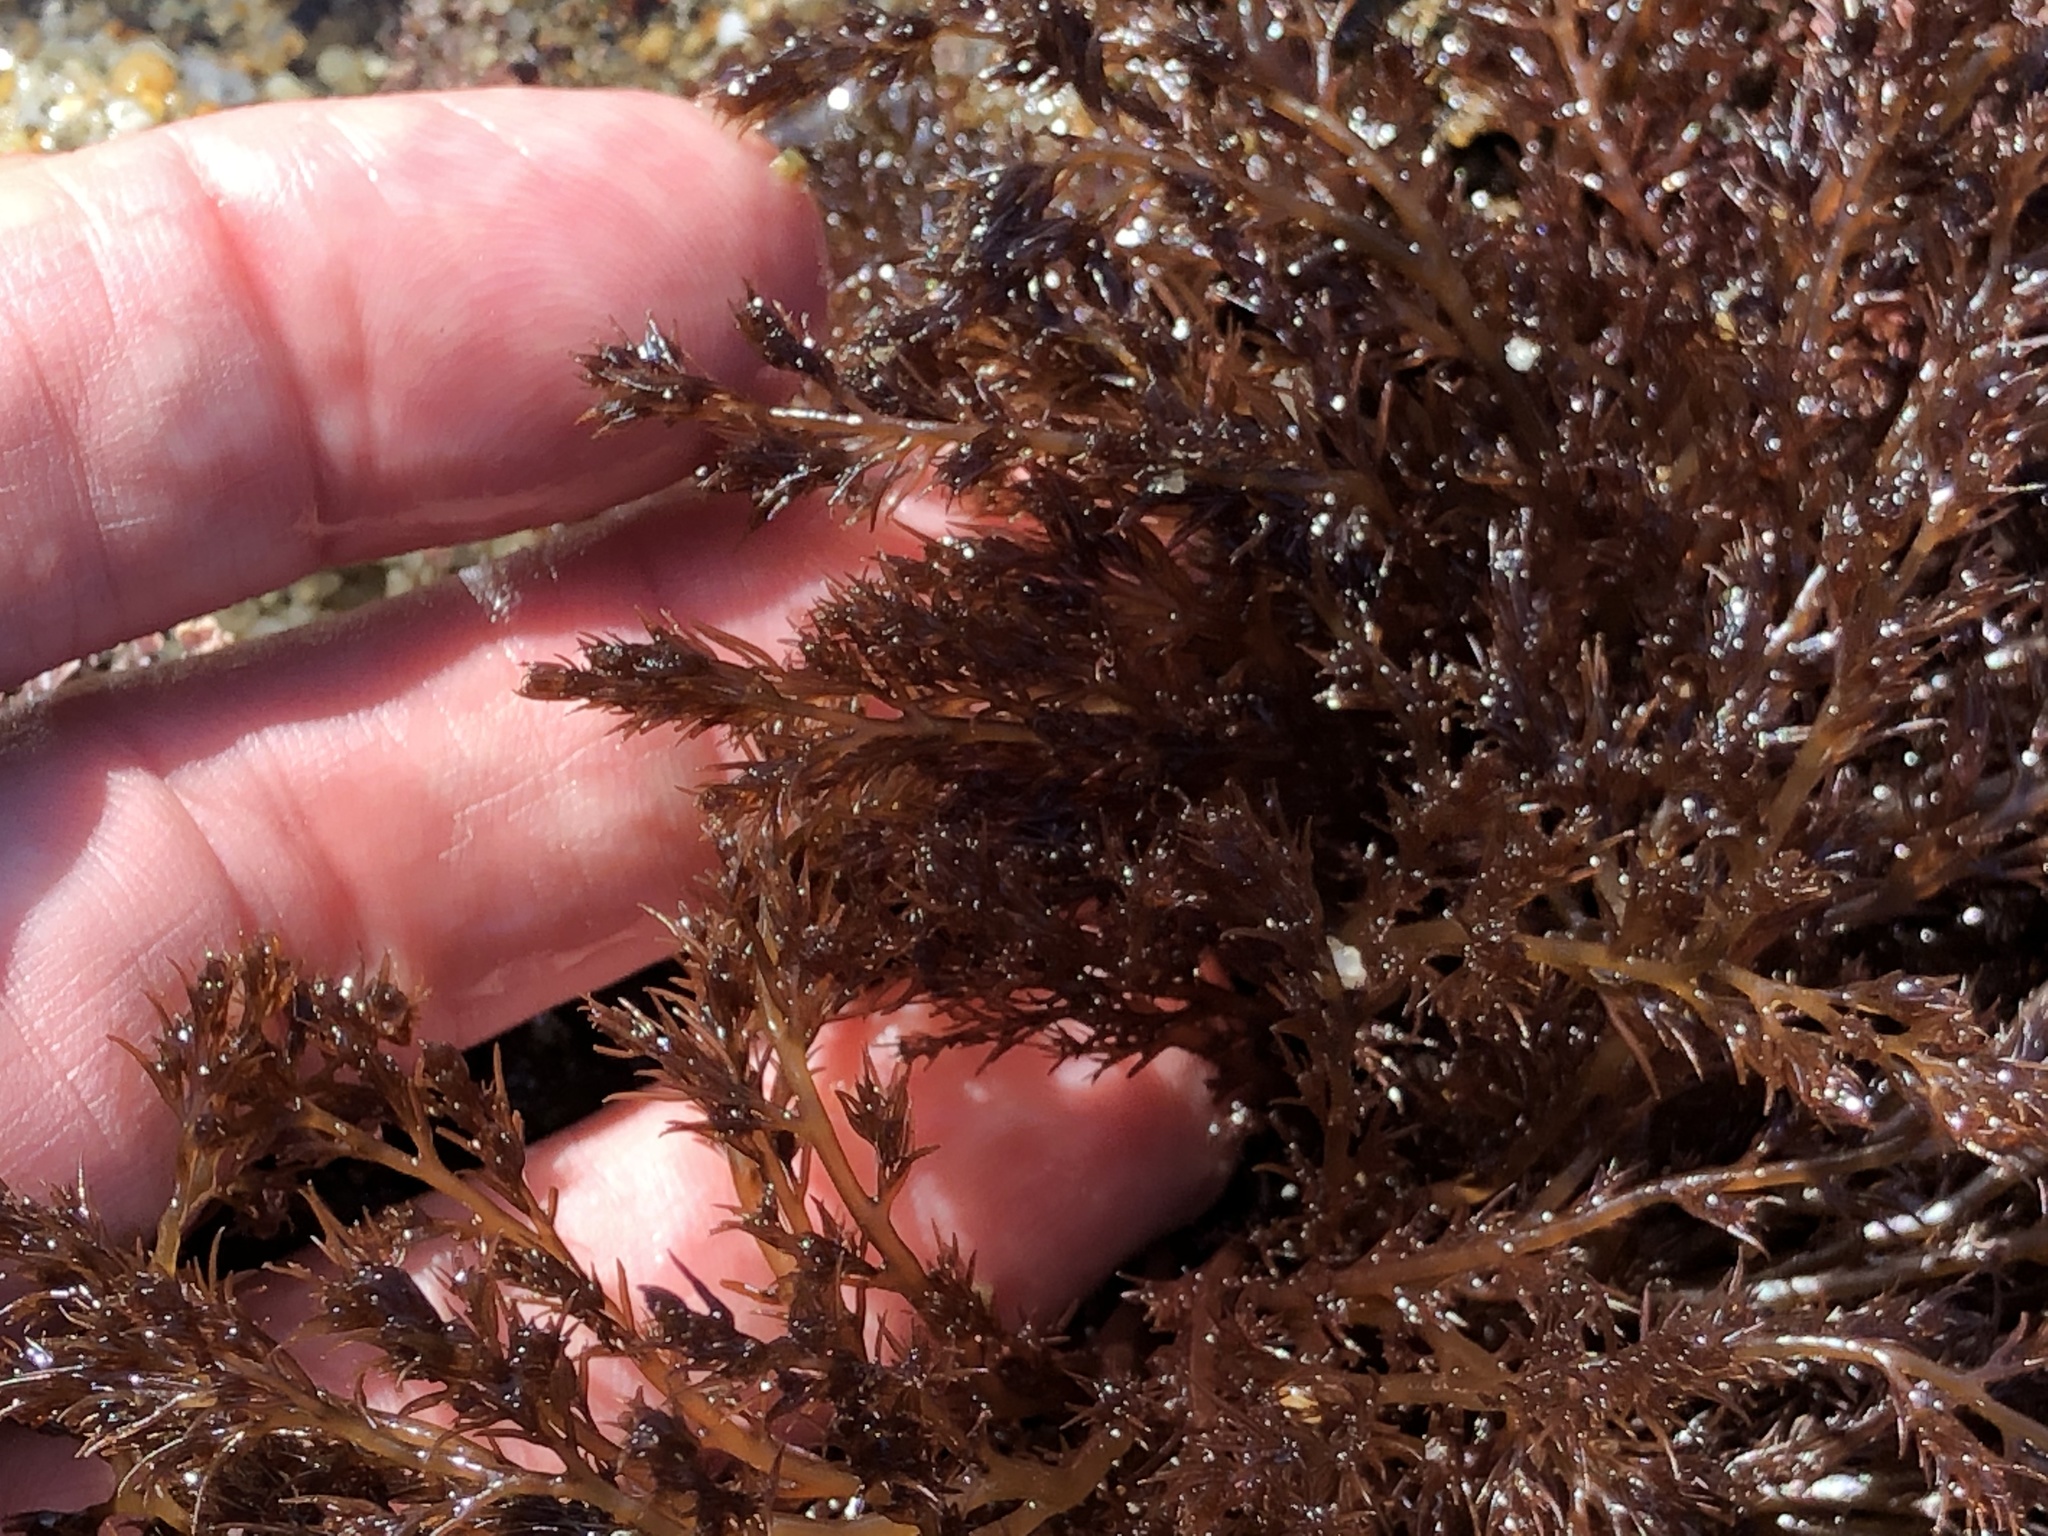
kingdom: Plantae
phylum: Rhodophyta
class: Florideophyceae
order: Ceramiales
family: Rhodomelaceae
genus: Odonthalia
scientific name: Odonthalia floccosa
